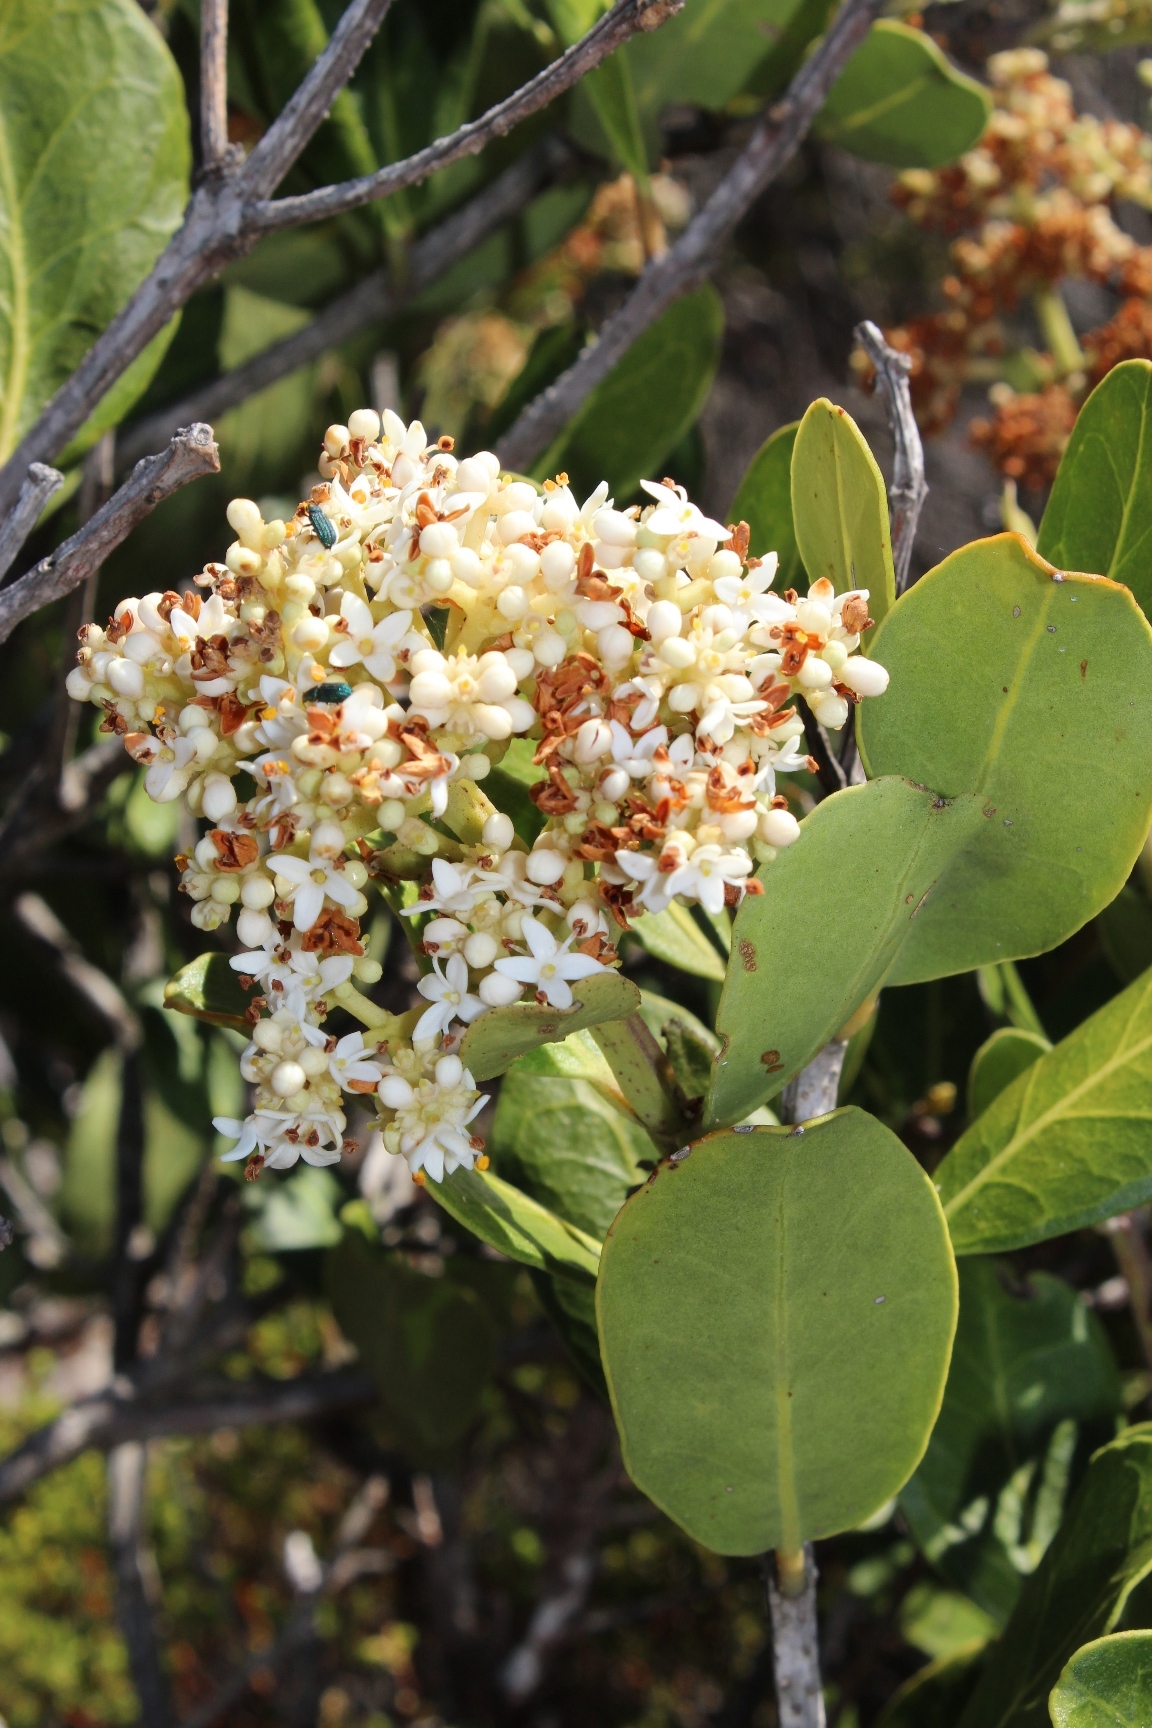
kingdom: Plantae
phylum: Tracheophyta
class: Magnoliopsida
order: Lamiales
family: Oleaceae
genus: Olea
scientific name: Olea capensis
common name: Black ironwood
